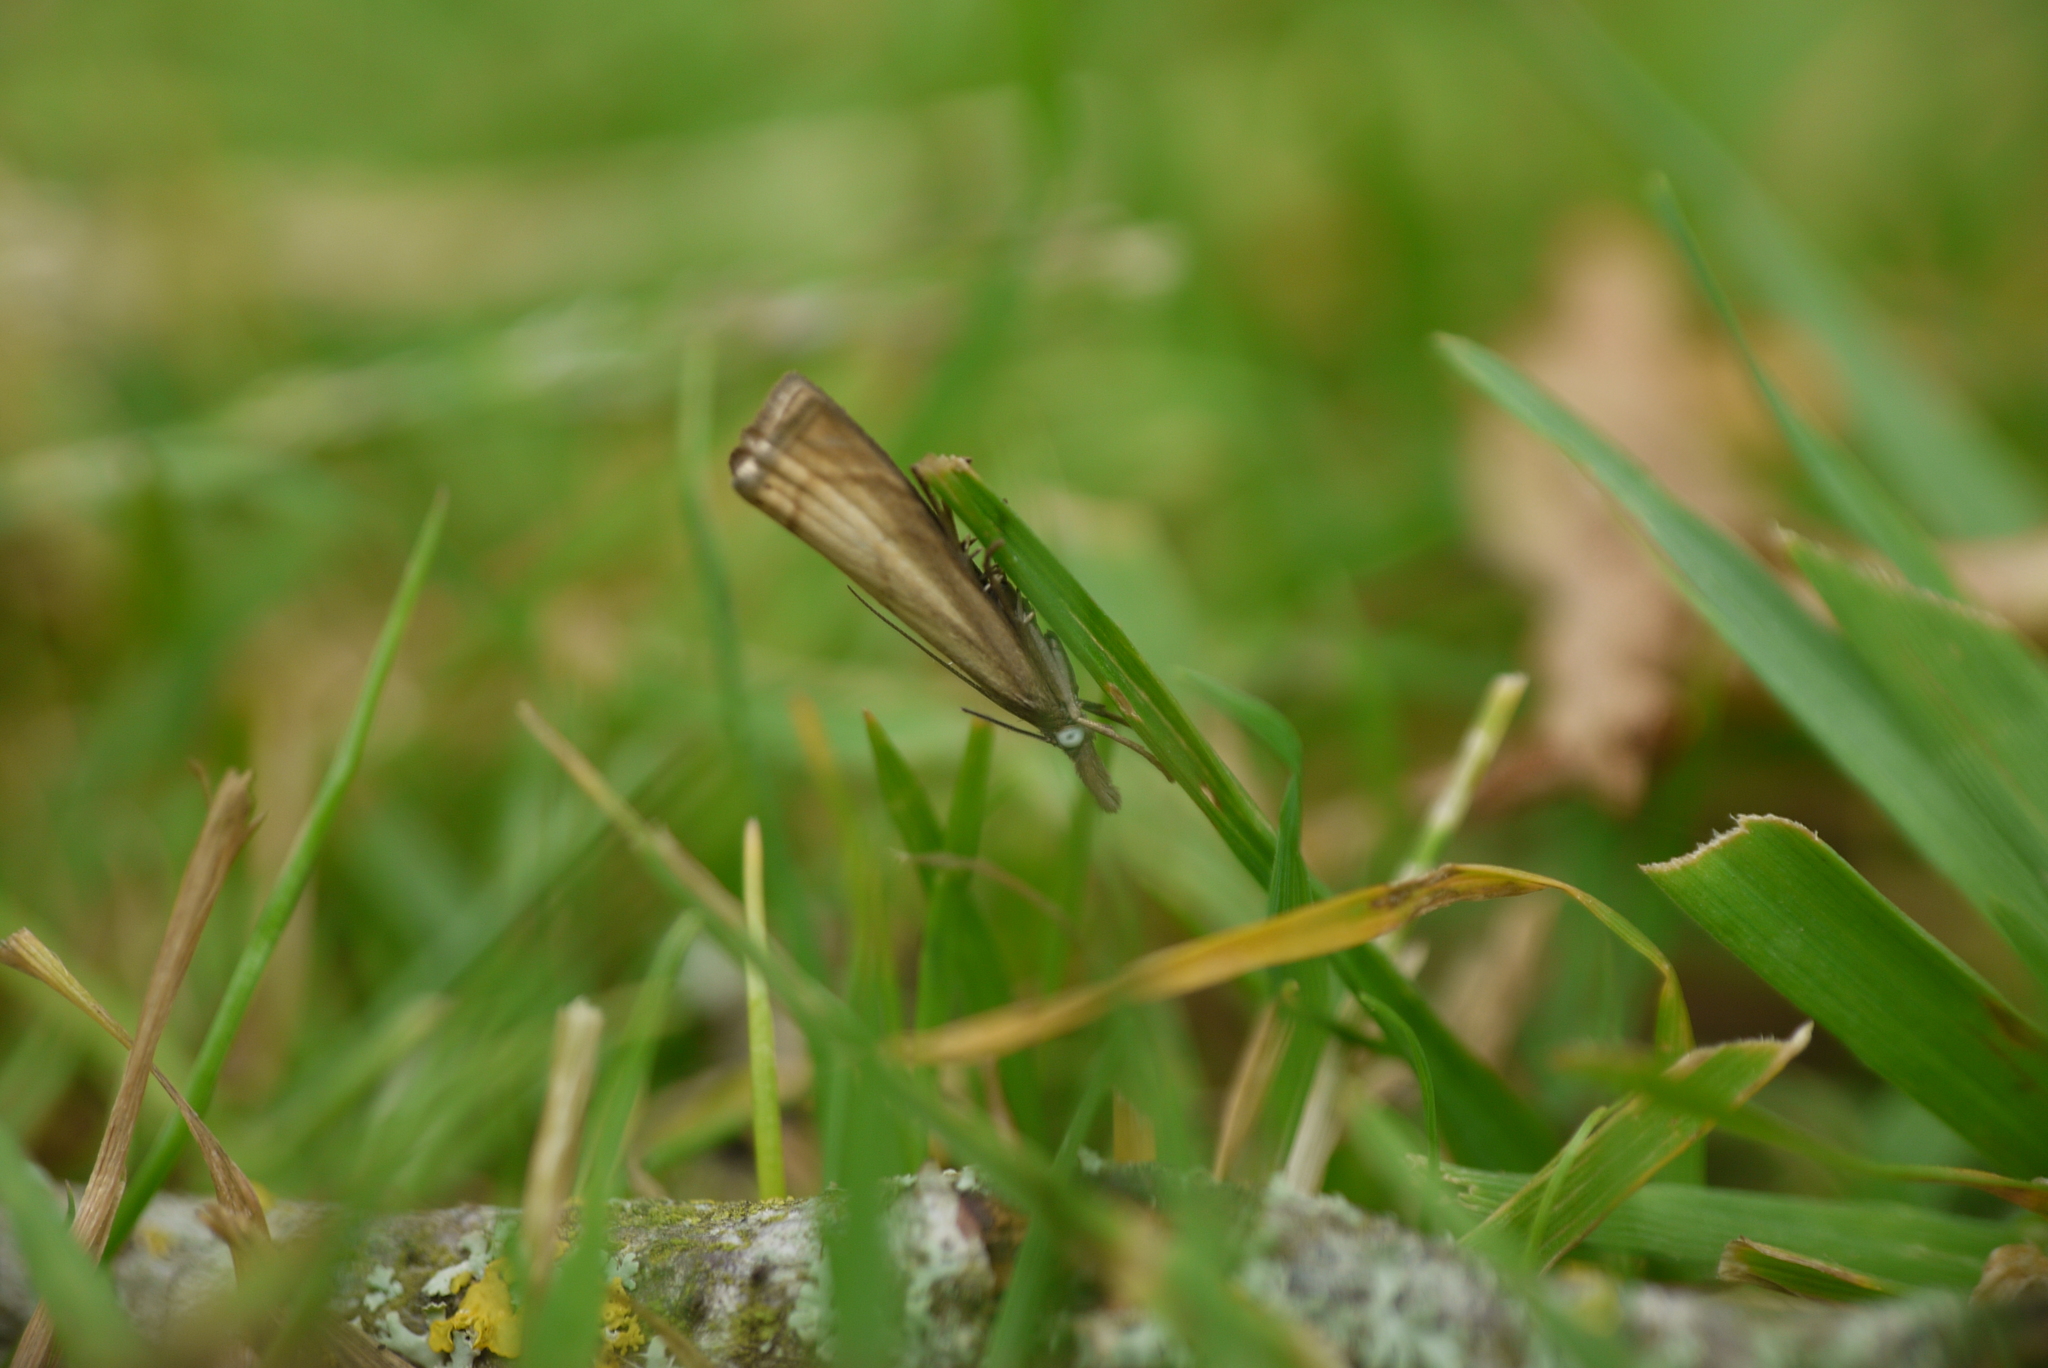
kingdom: Animalia
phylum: Arthropoda
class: Insecta
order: Lepidoptera
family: Crambidae
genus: Chrysoteuchia
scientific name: Chrysoteuchia culmella
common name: Garden grass-veneer
